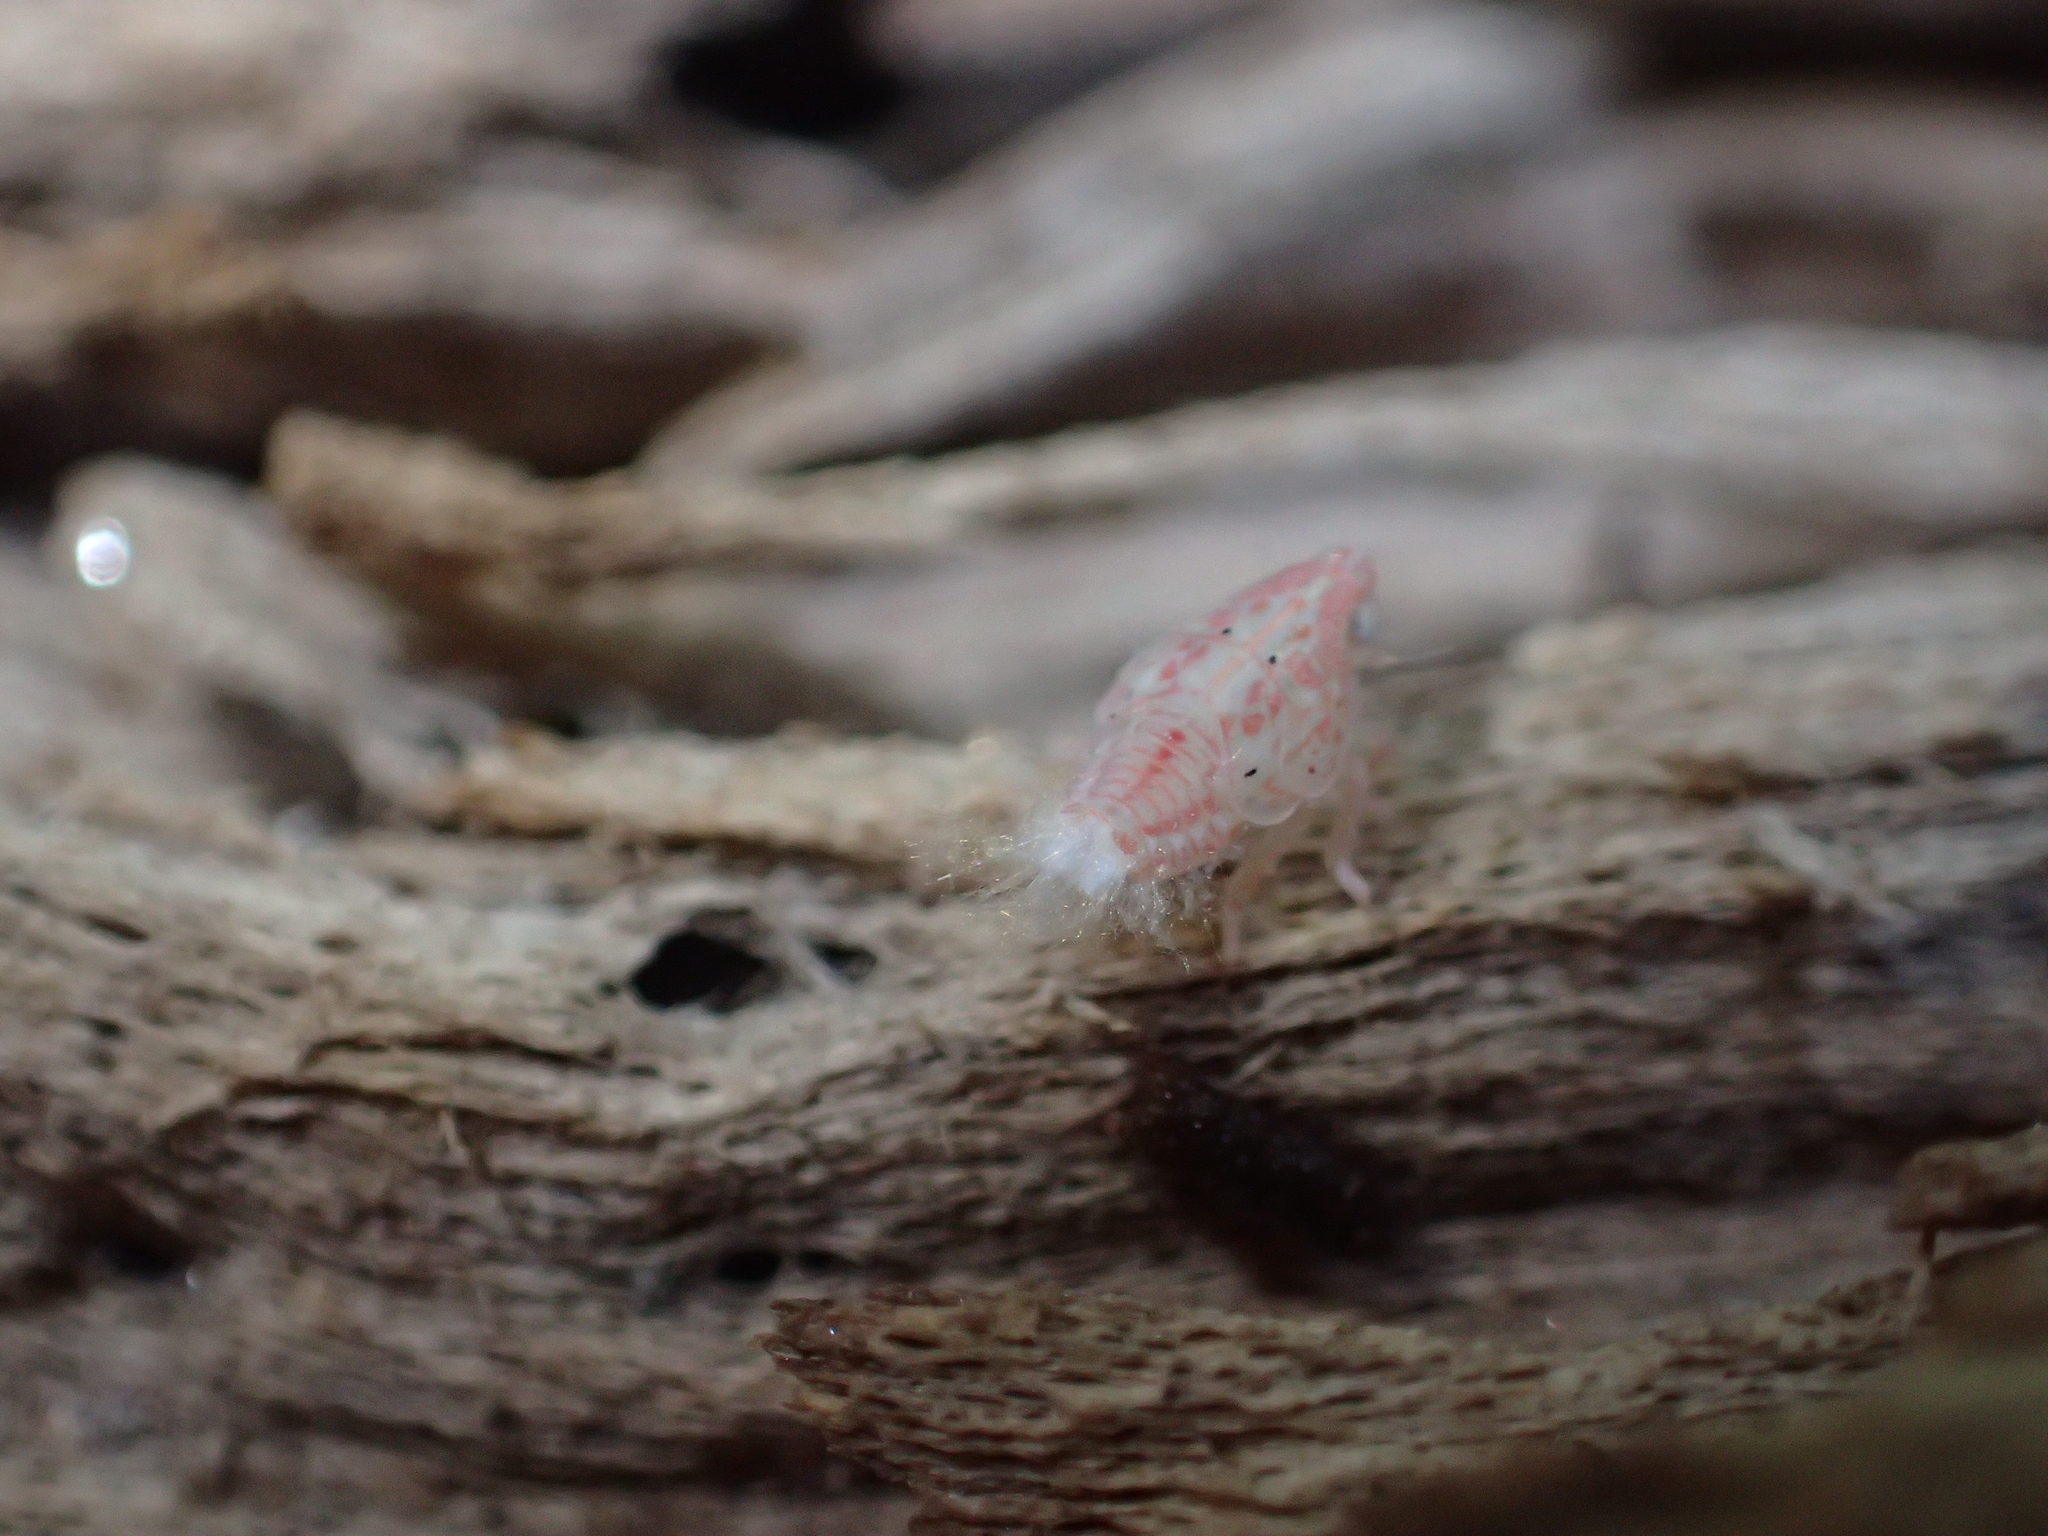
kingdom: Animalia
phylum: Arthropoda
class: Insecta
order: Hemiptera
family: Flatidae
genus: Siphanta
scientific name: Siphanta acuta
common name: Torpedo bug
